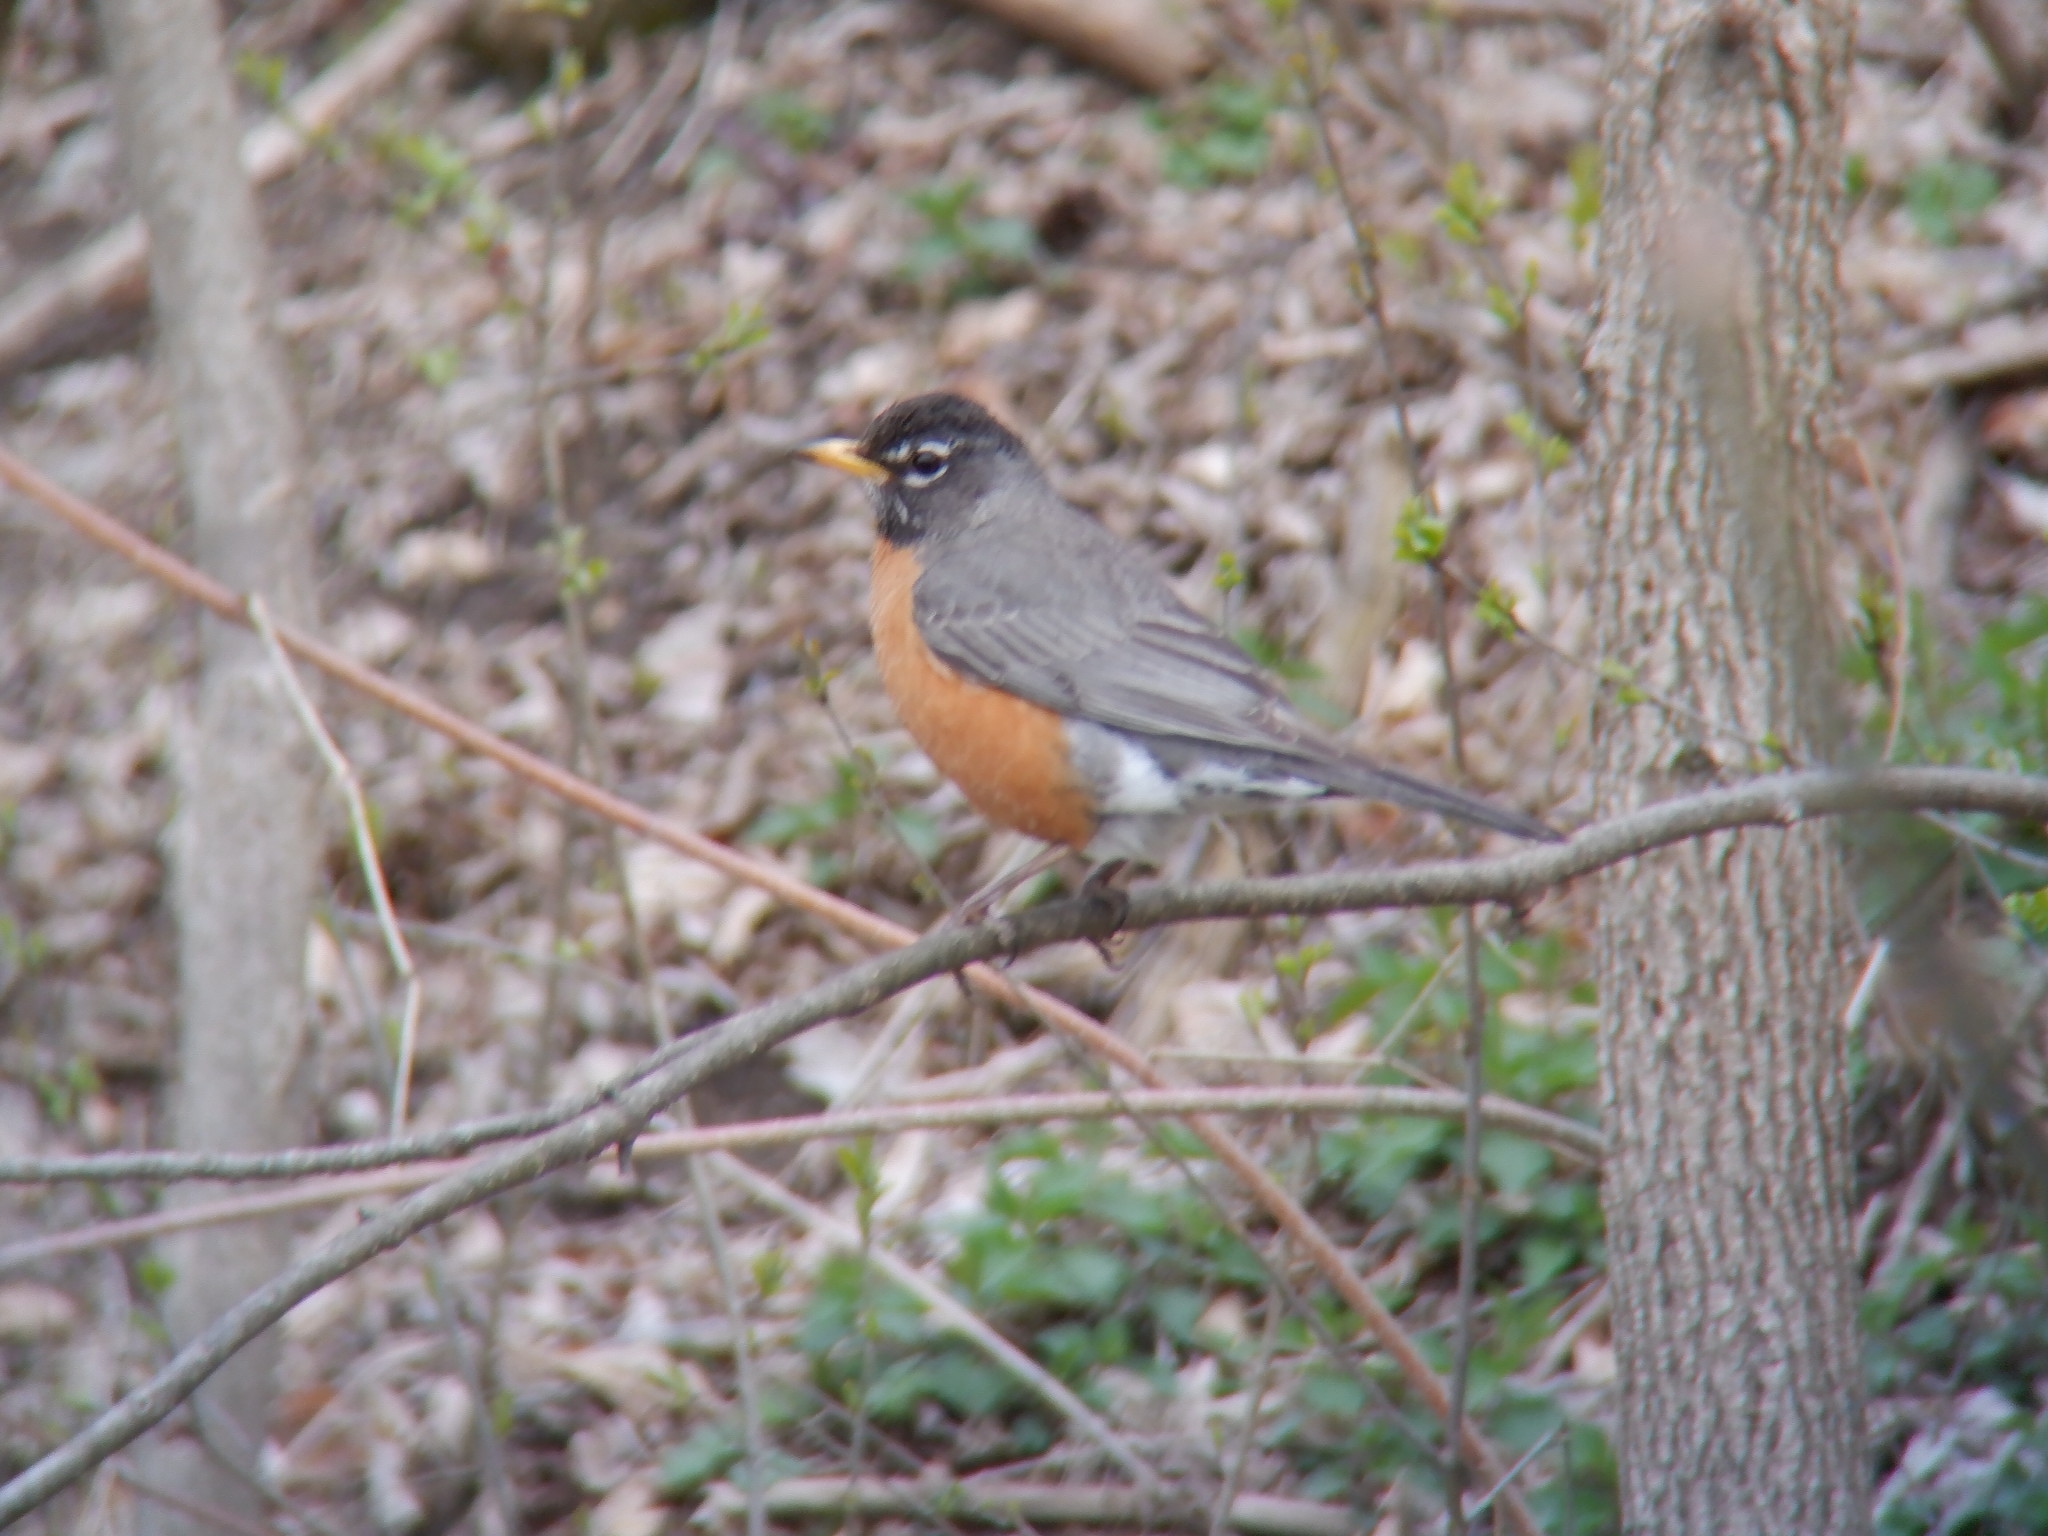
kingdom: Animalia
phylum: Chordata
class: Aves
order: Passeriformes
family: Turdidae
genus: Turdus
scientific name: Turdus migratorius
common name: American robin
